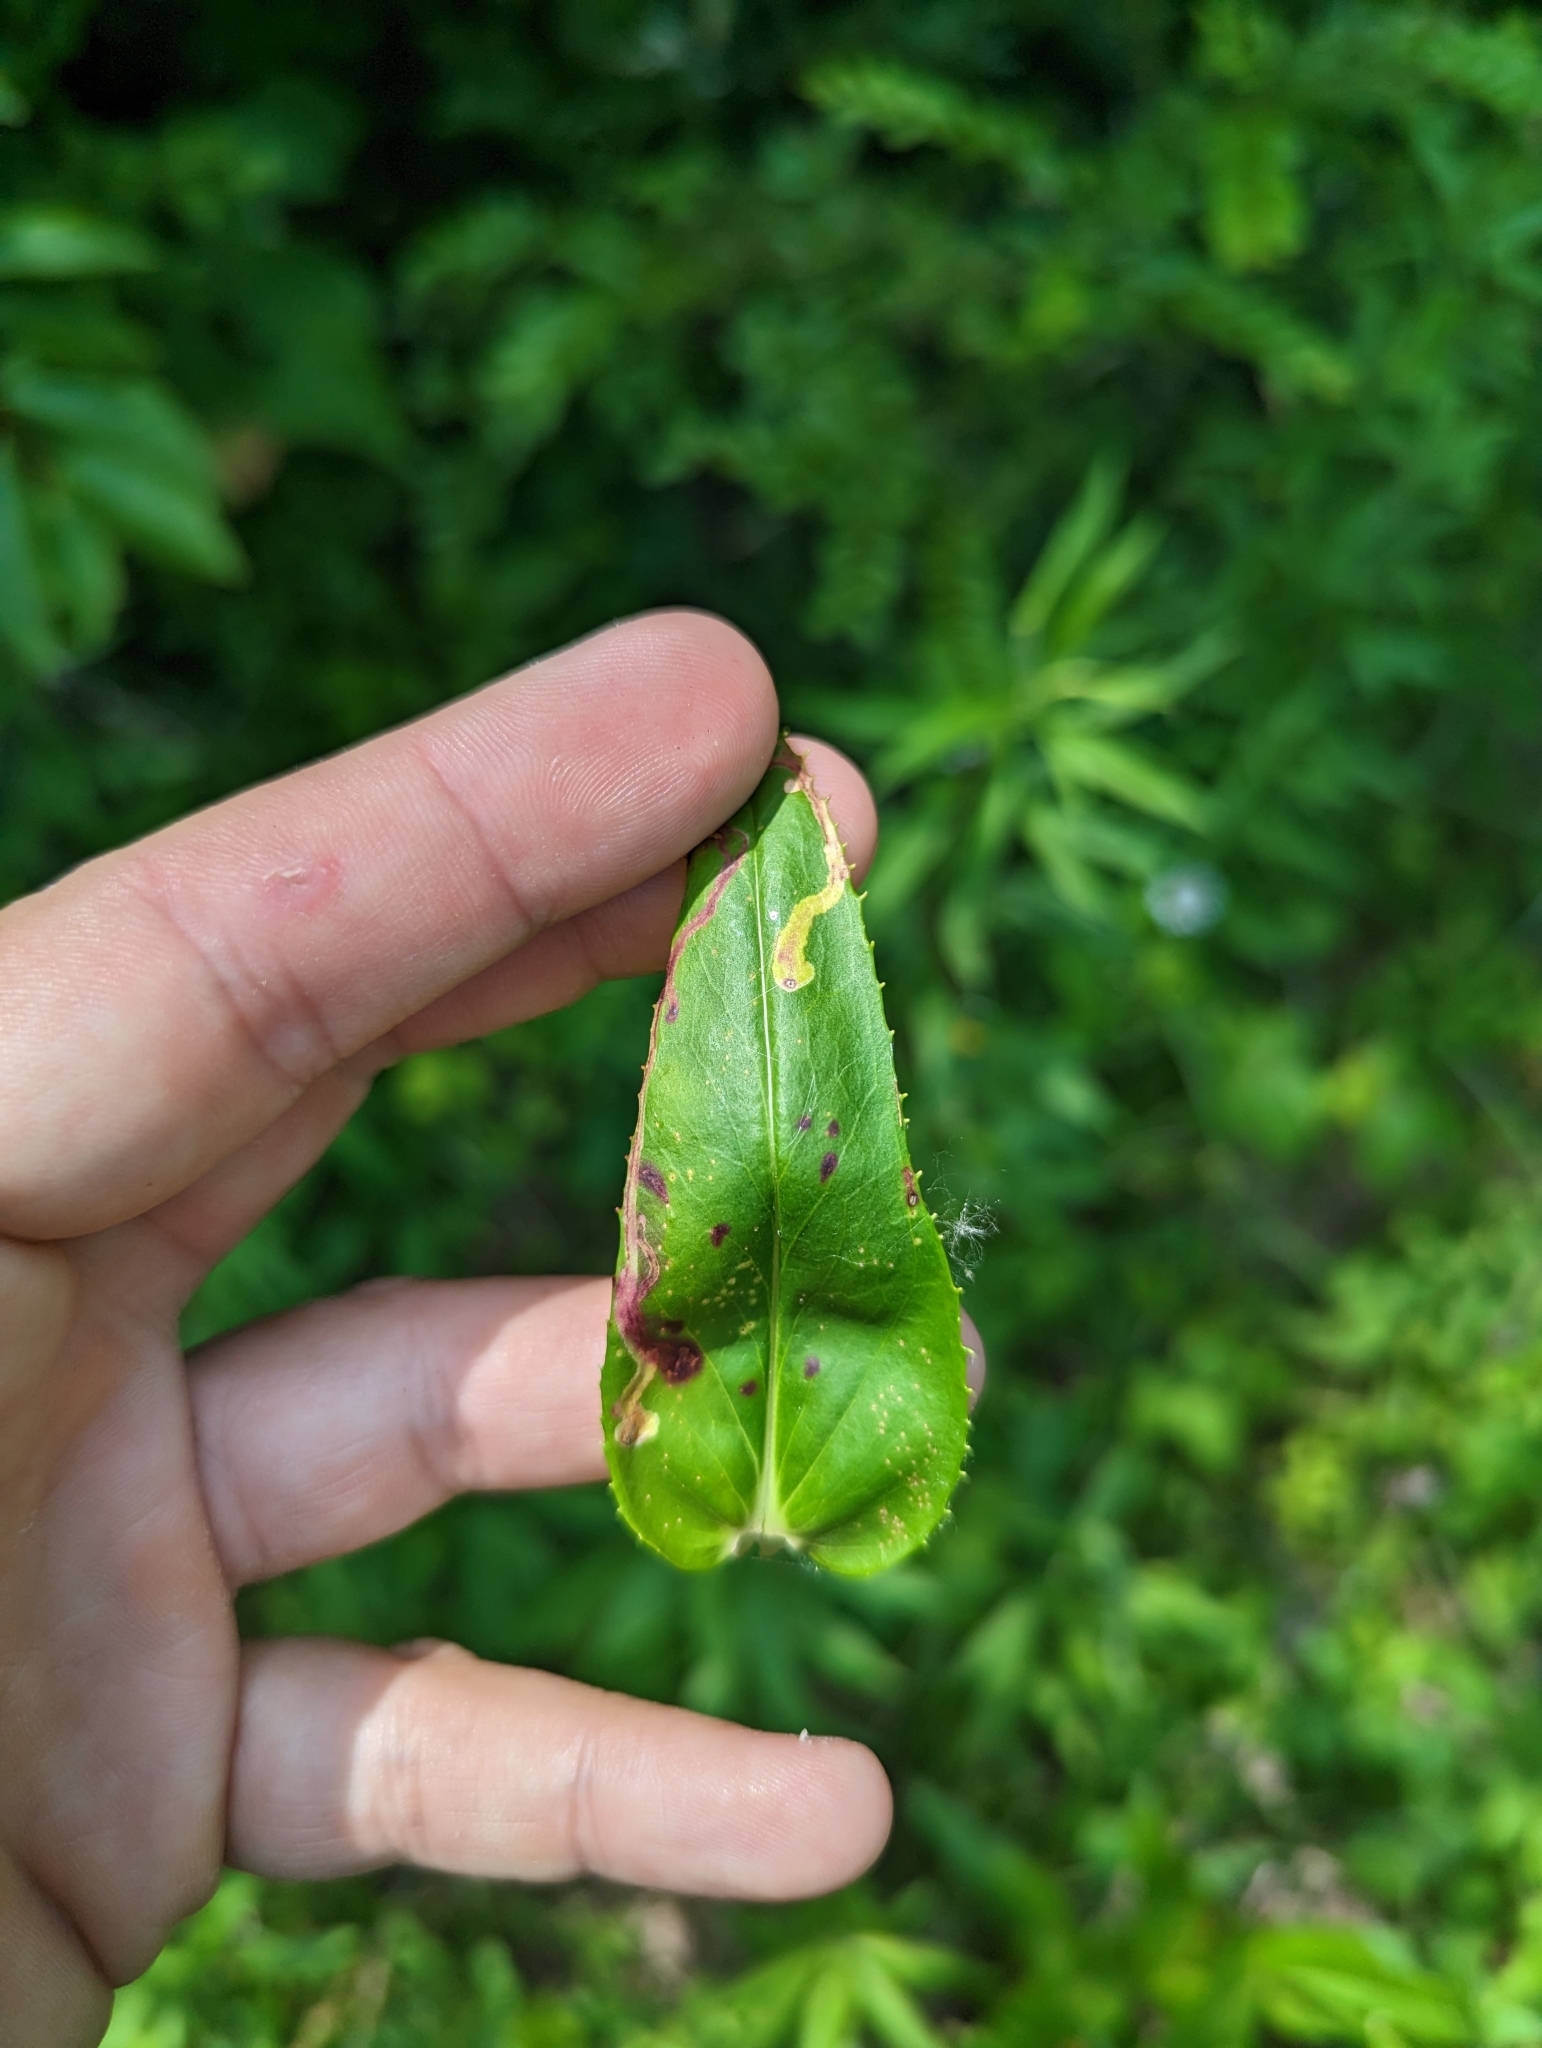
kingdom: Animalia
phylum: Arthropoda
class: Insecta
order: Diptera
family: Agromyzidae
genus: Phytomyza
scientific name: Phytomyza penstemonis
